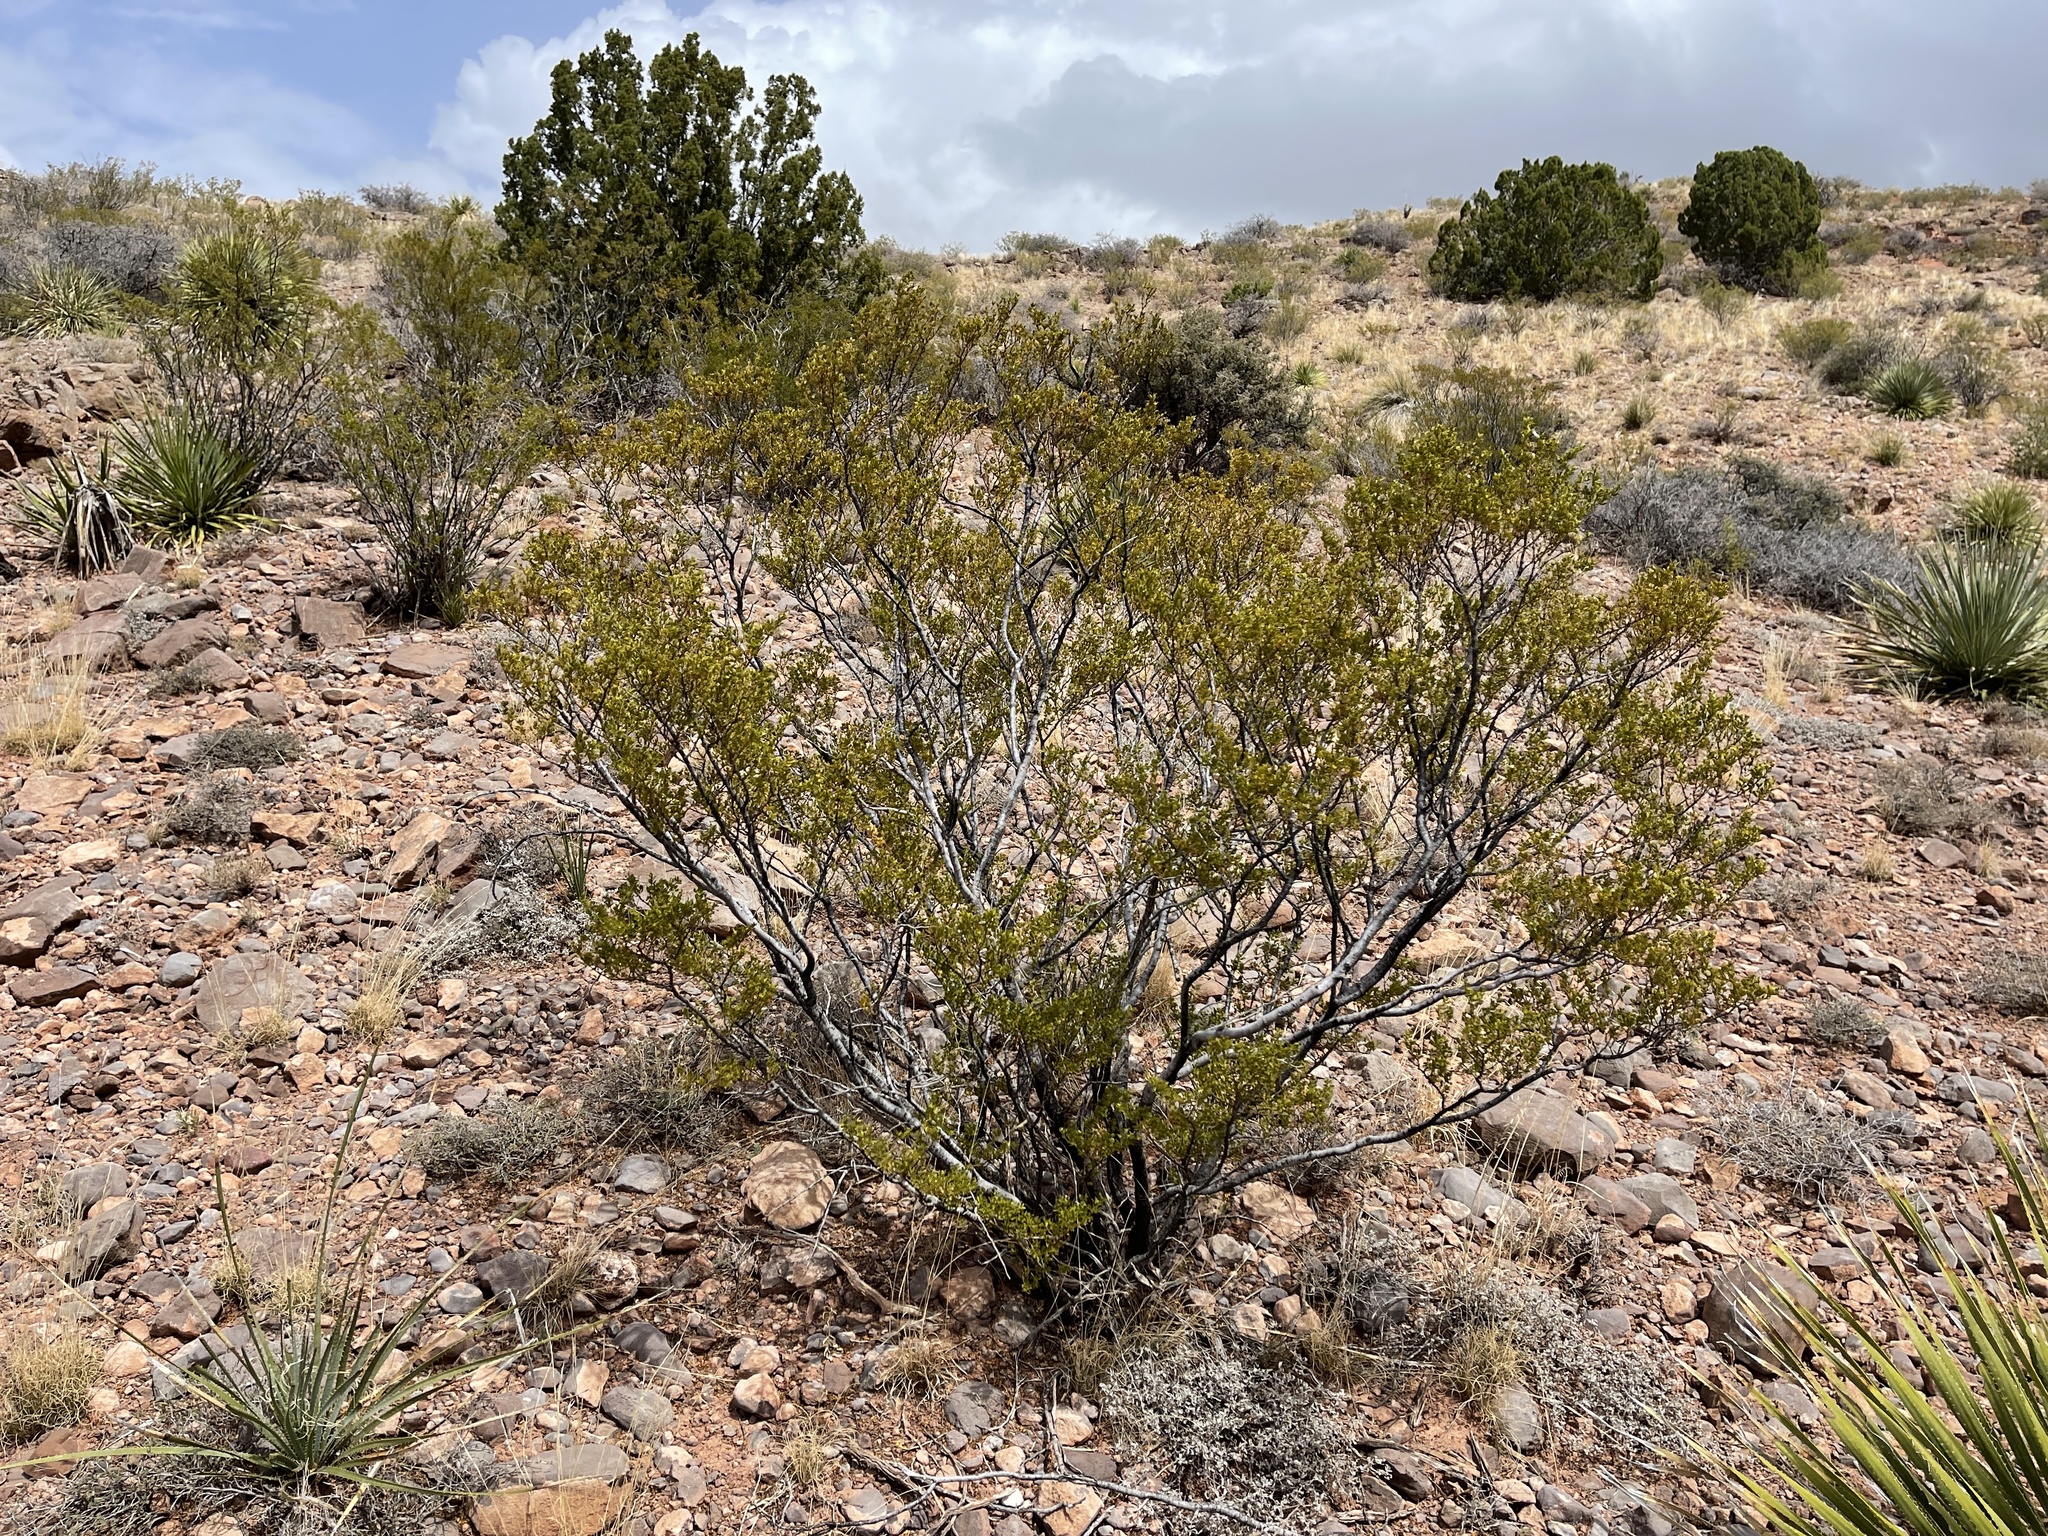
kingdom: Plantae
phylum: Tracheophyta
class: Magnoliopsida
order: Zygophyllales
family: Zygophyllaceae
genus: Larrea
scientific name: Larrea tridentata
